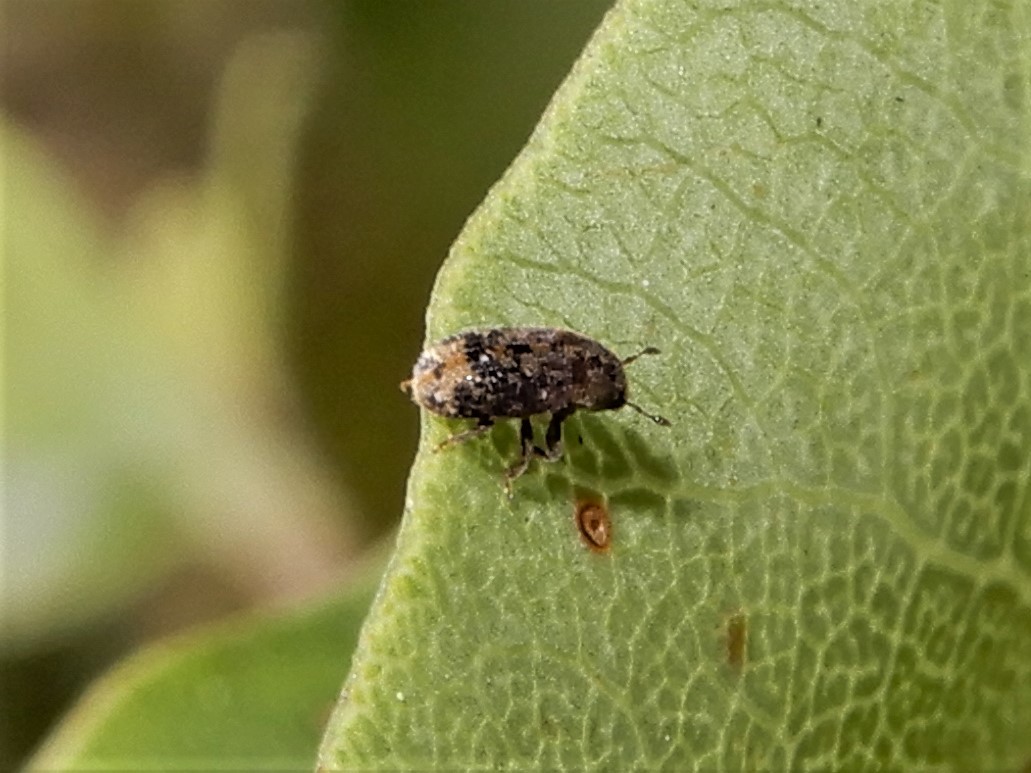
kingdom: Animalia
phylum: Arthropoda
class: Insecta
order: Coleoptera
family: Curculionidae
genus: Chaetoptelius
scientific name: Chaetoptelius mundulus
